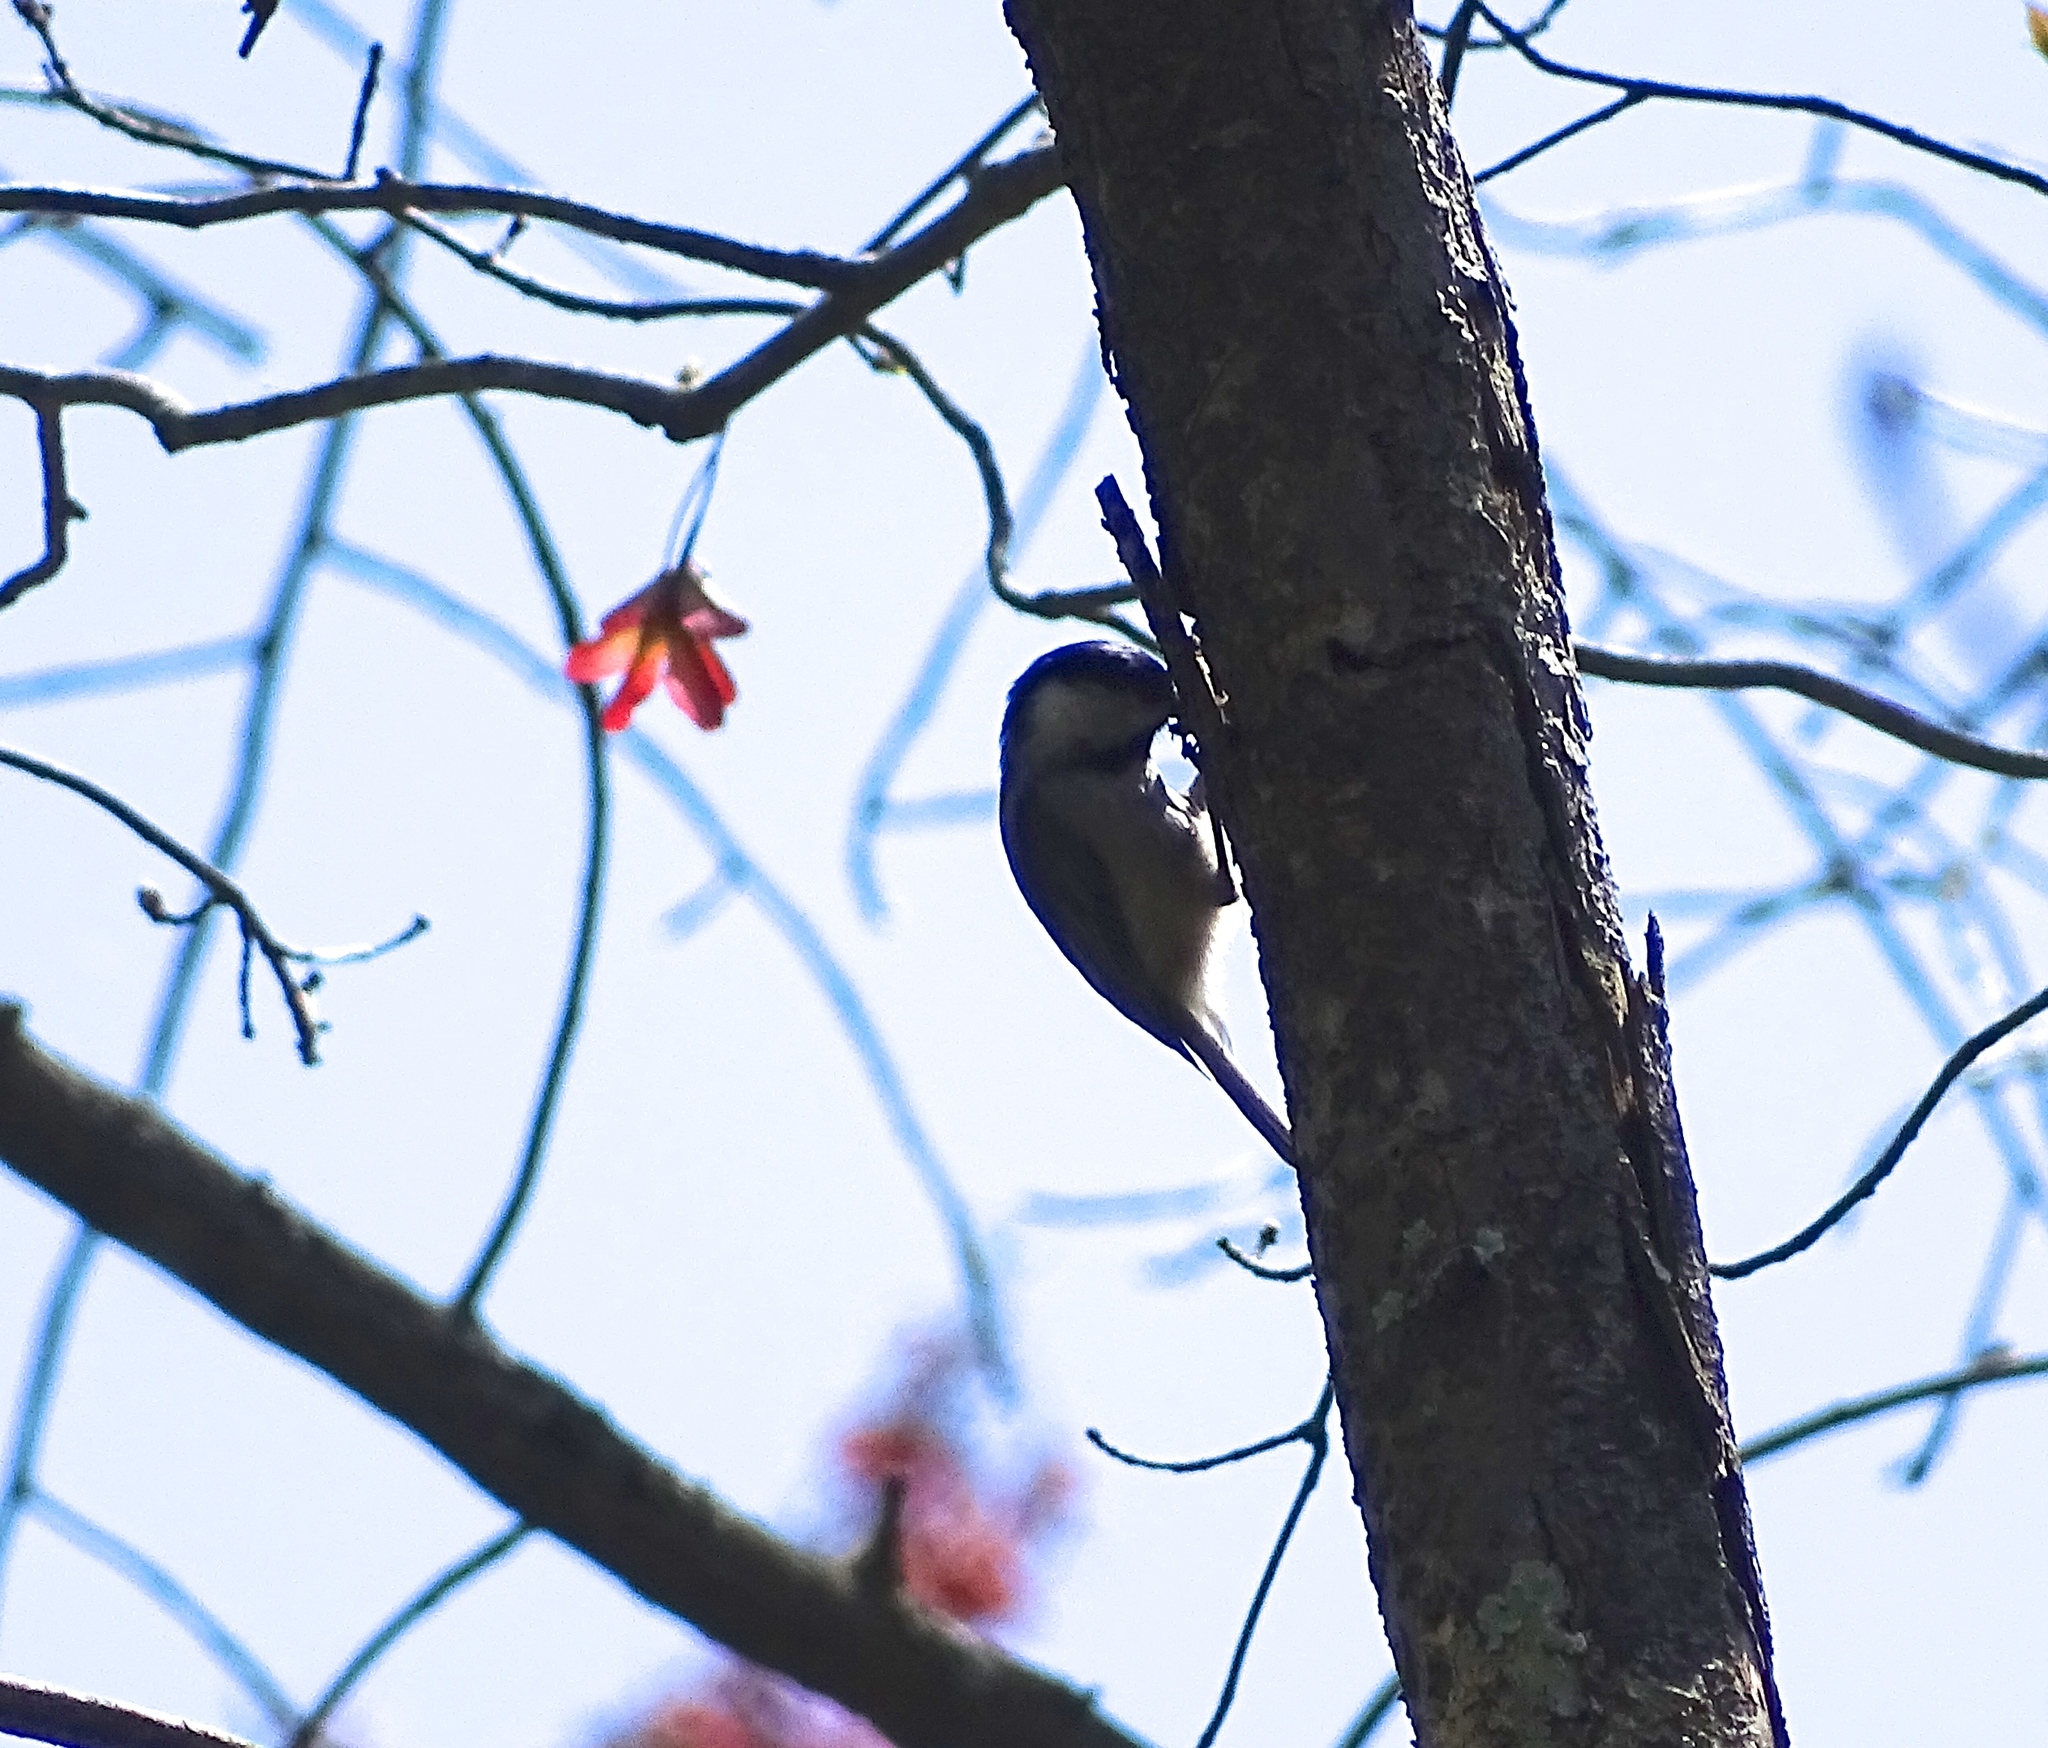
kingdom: Animalia
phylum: Chordata
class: Aves
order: Passeriformes
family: Paridae
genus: Poecile
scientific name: Poecile carolinensis
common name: Carolina chickadee
